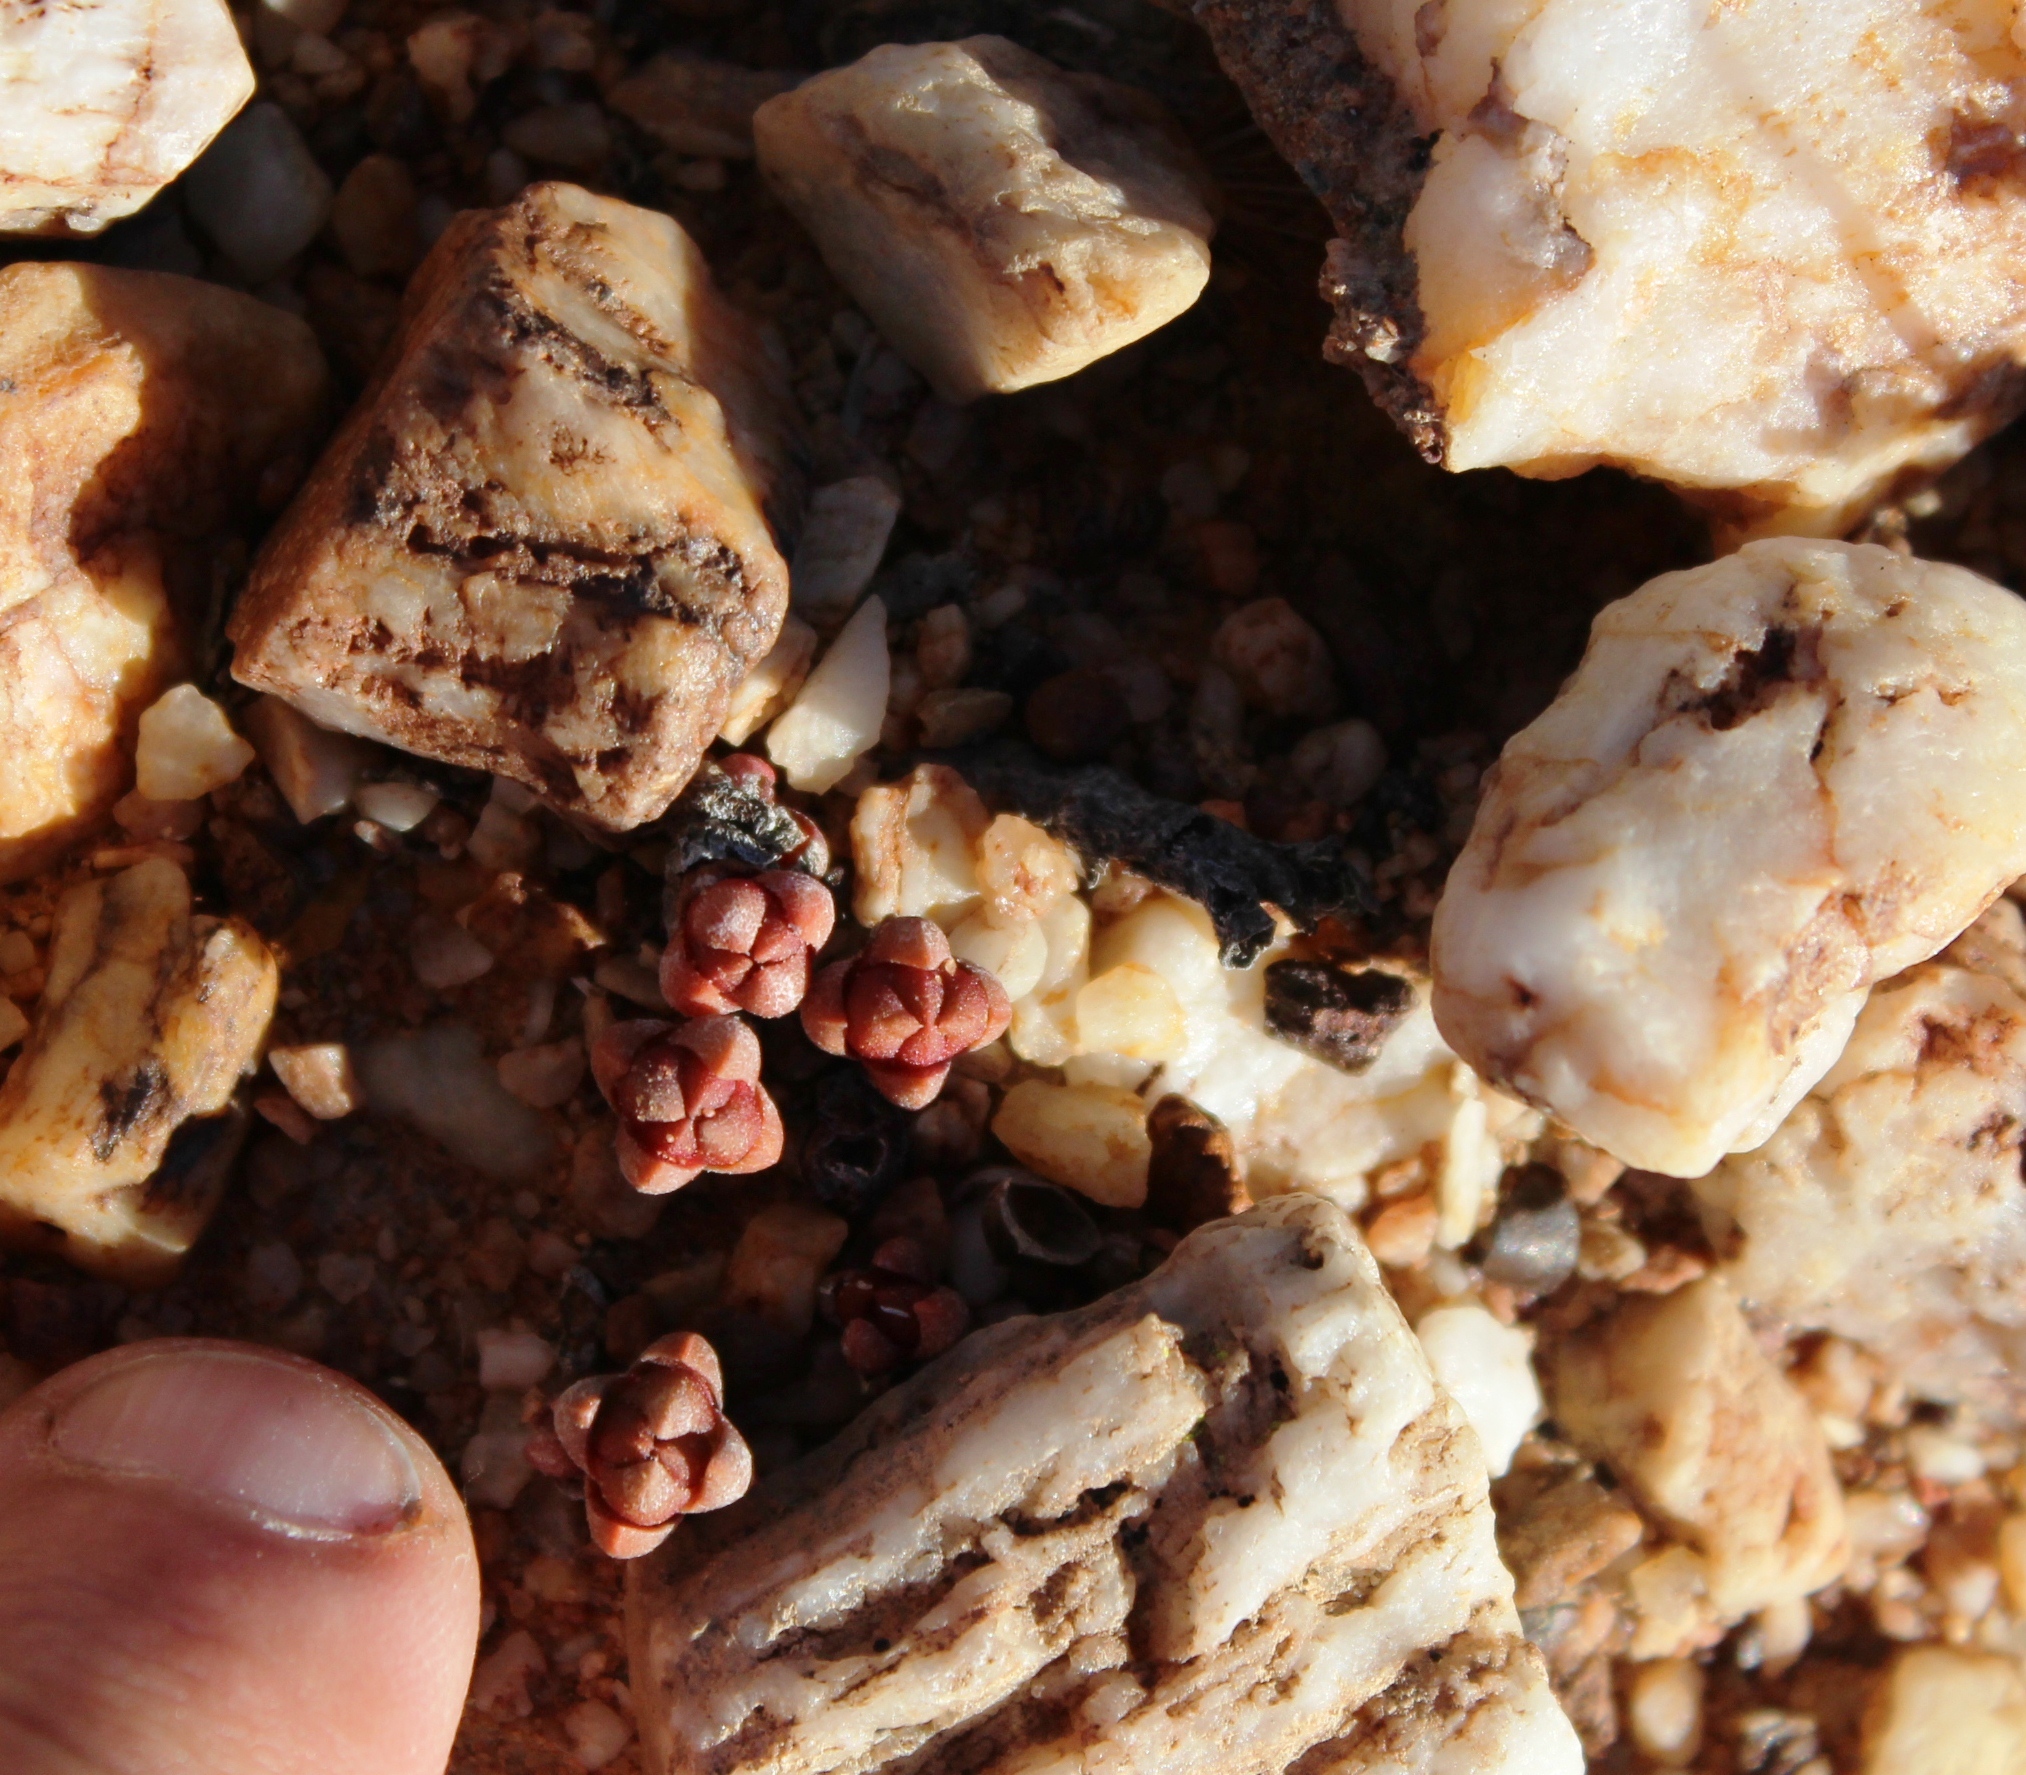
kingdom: Plantae
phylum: Tracheophyta
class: Magnoliopsida
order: Saxifragales
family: Crassulaceae
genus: Crassula
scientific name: Crassula columnaris
